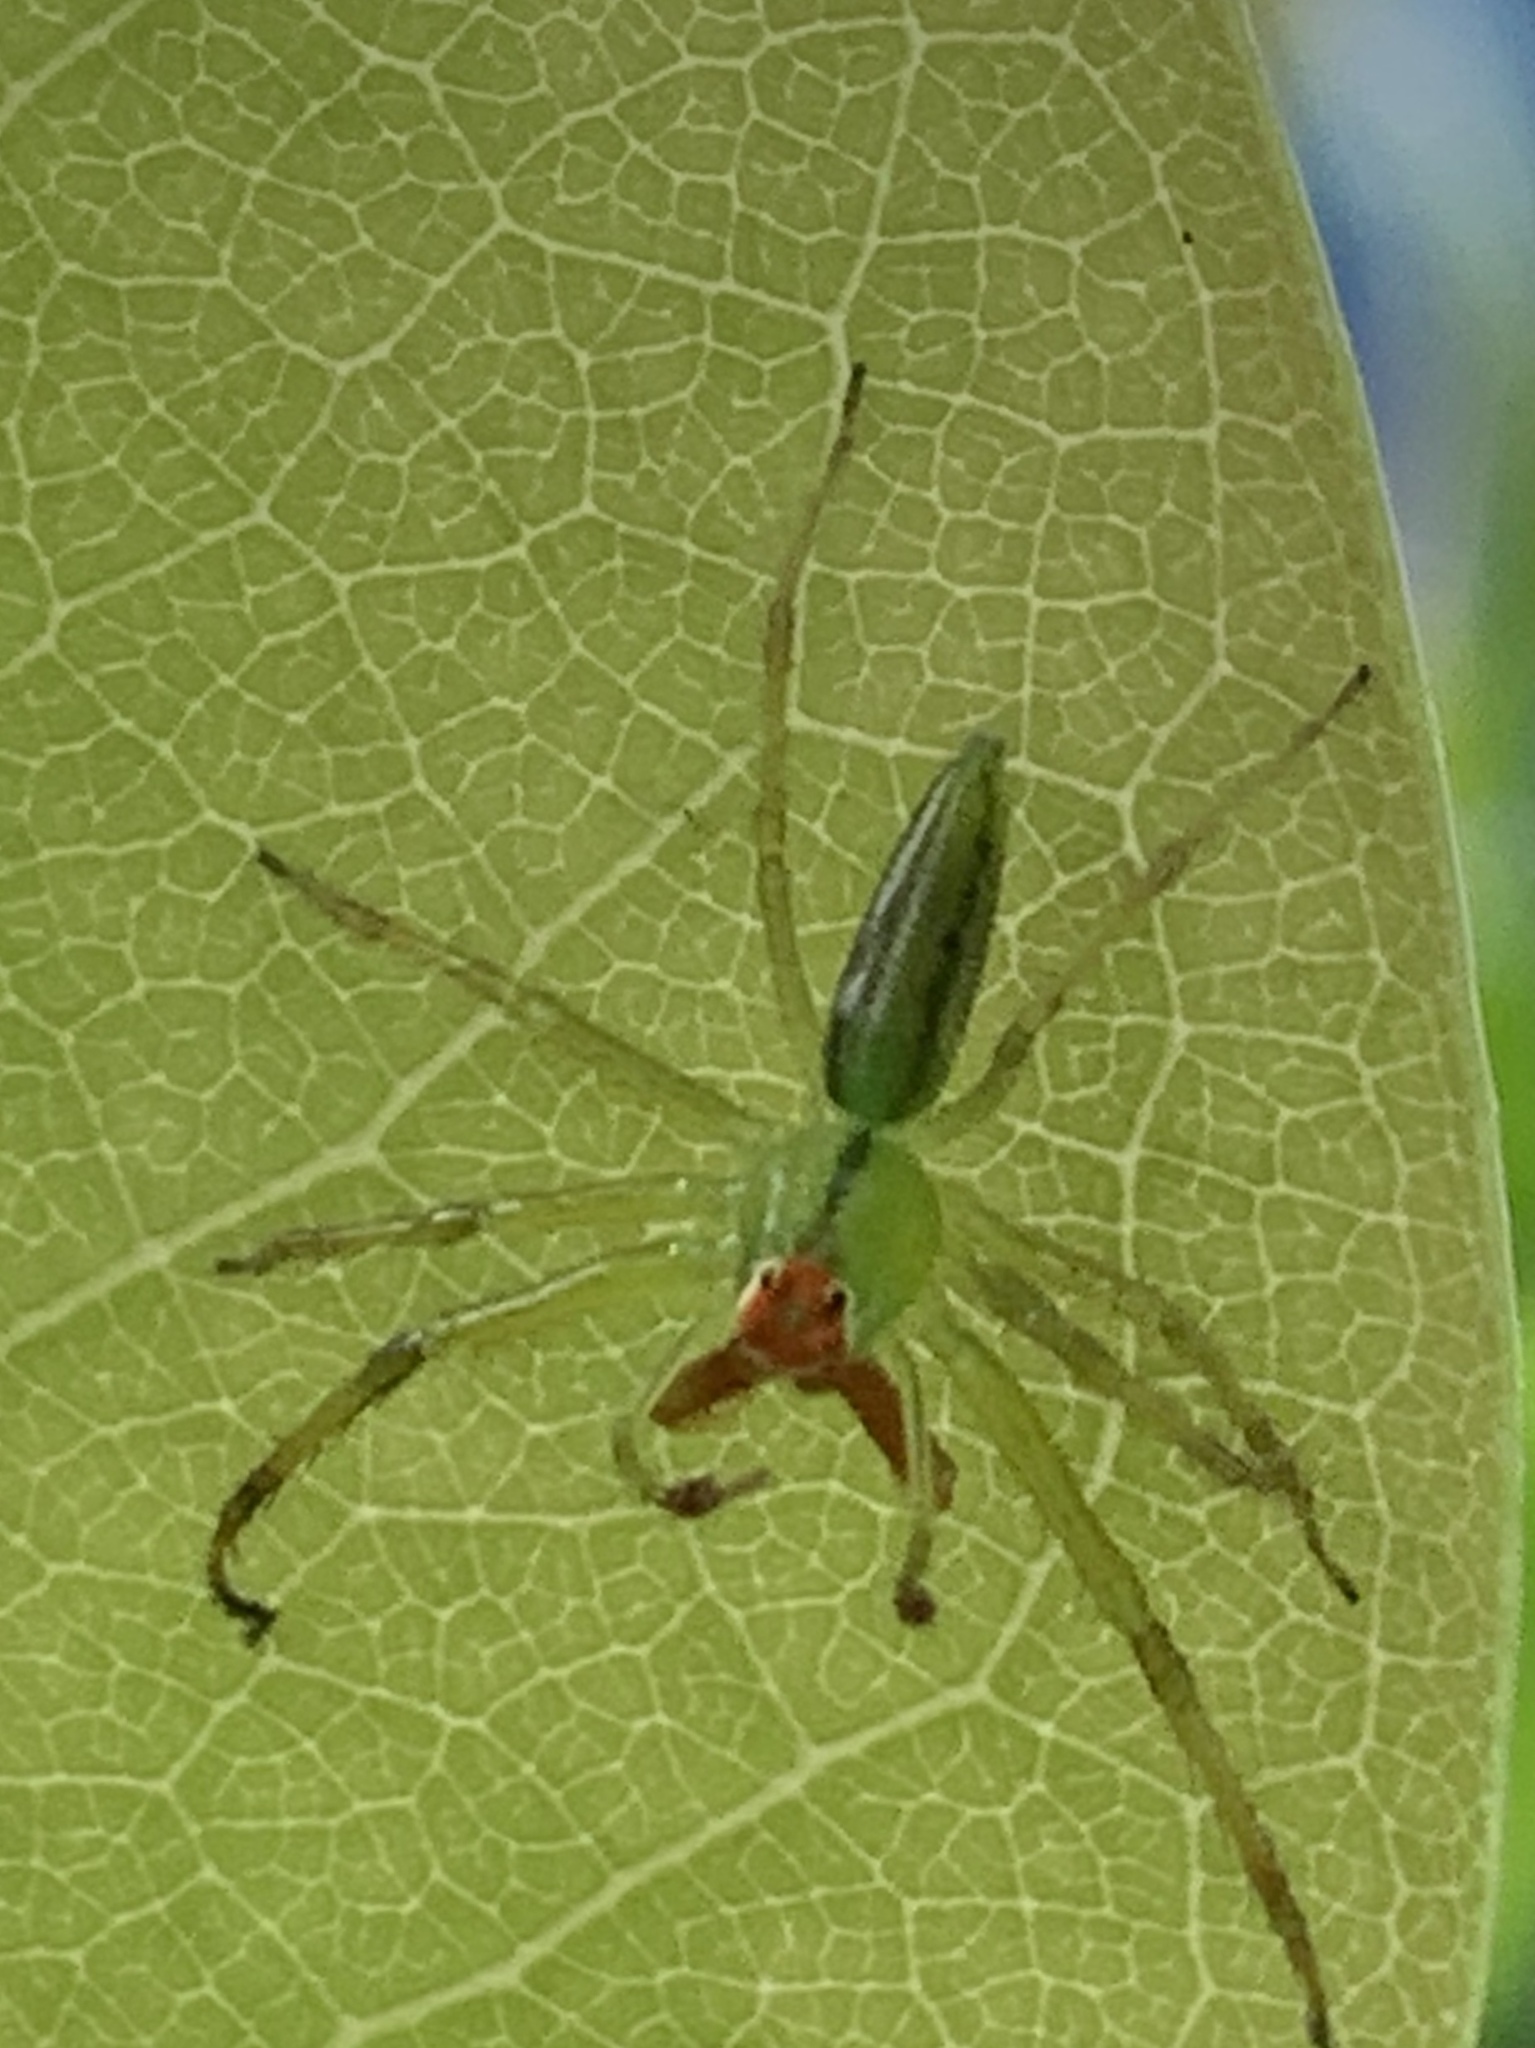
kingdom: Animalia
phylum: Arthropoda
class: Arachnida
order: Araneae
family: Salticidae
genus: Lyssomanes
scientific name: Lyssomanes viridis
